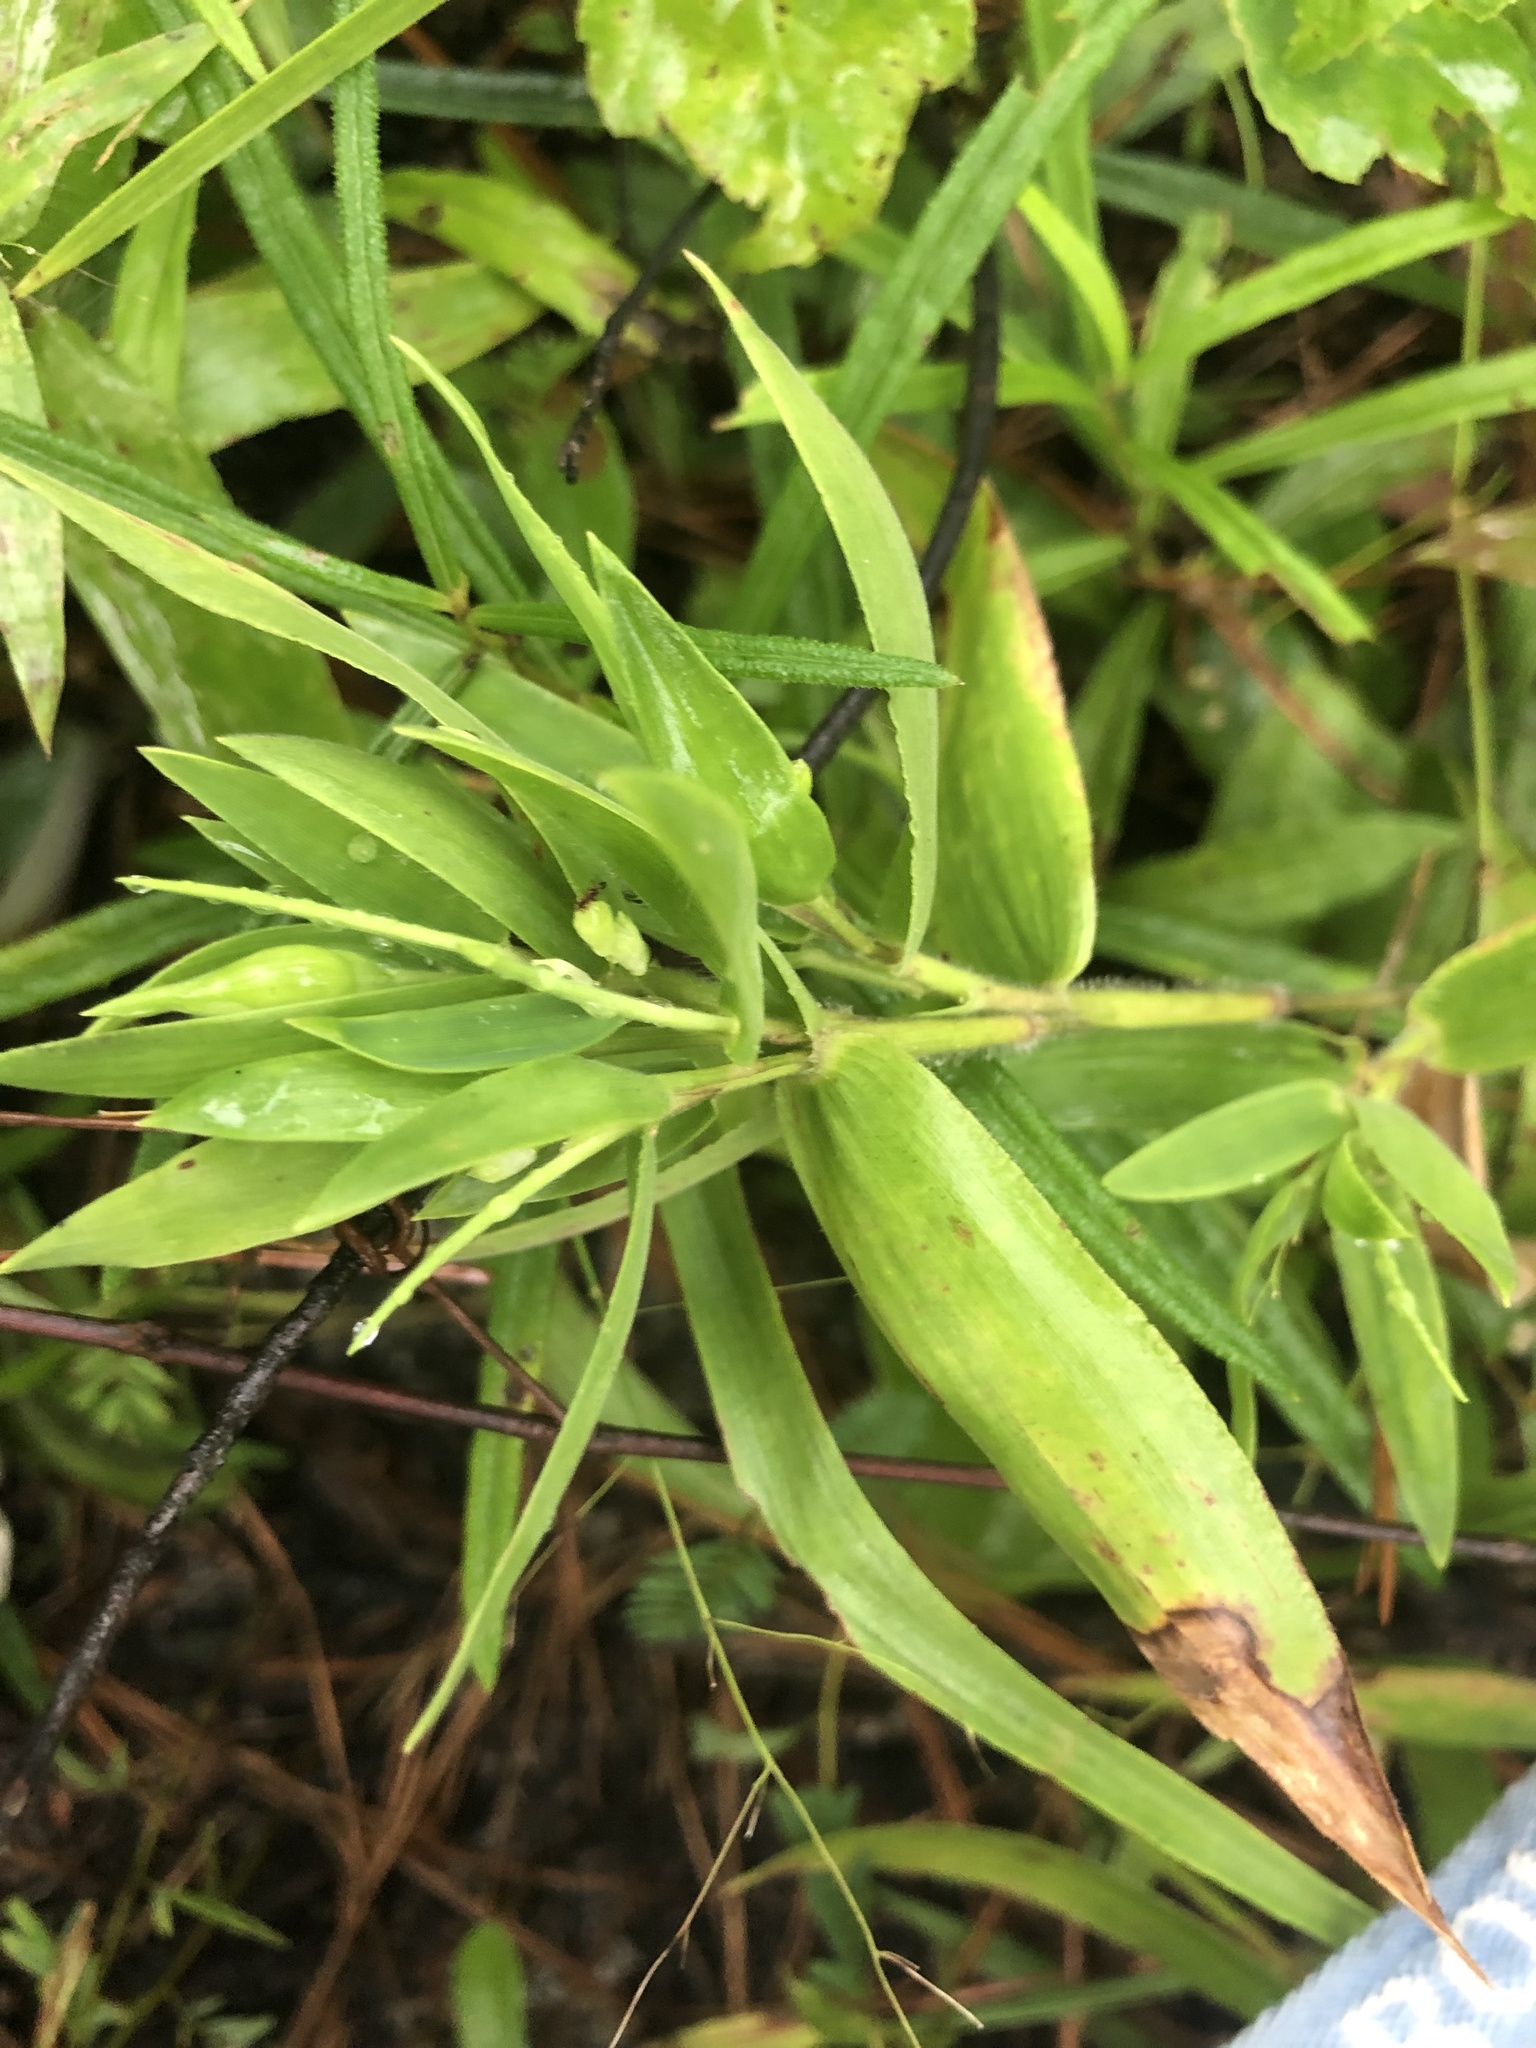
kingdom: Plantae
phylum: Tracheophyta
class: Liliopsida
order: Poales
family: Poaceae
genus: Dichanthelium
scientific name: Dichanthelium ravenelii
